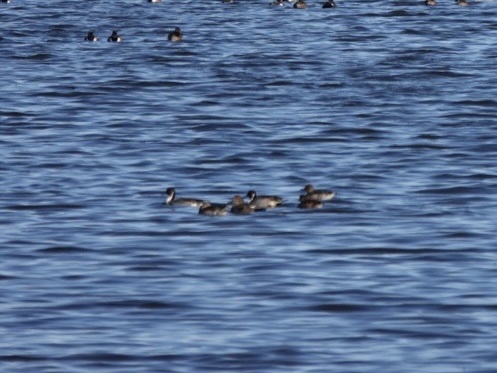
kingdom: Animalia
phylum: Chordata
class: Aves
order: Anseriformes
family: Anatidae
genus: Anas
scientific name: Anas acuta
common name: Northern pintail
